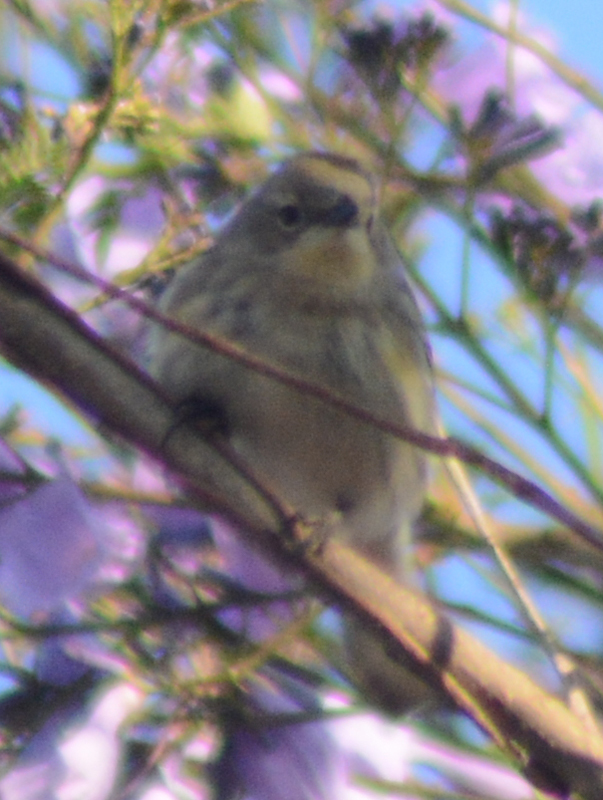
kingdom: Animalia
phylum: Chordata
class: Aves
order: Passeriformes
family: Parulidae
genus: Setophaga
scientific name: Setophaga coronata
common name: Myrtle warbler
